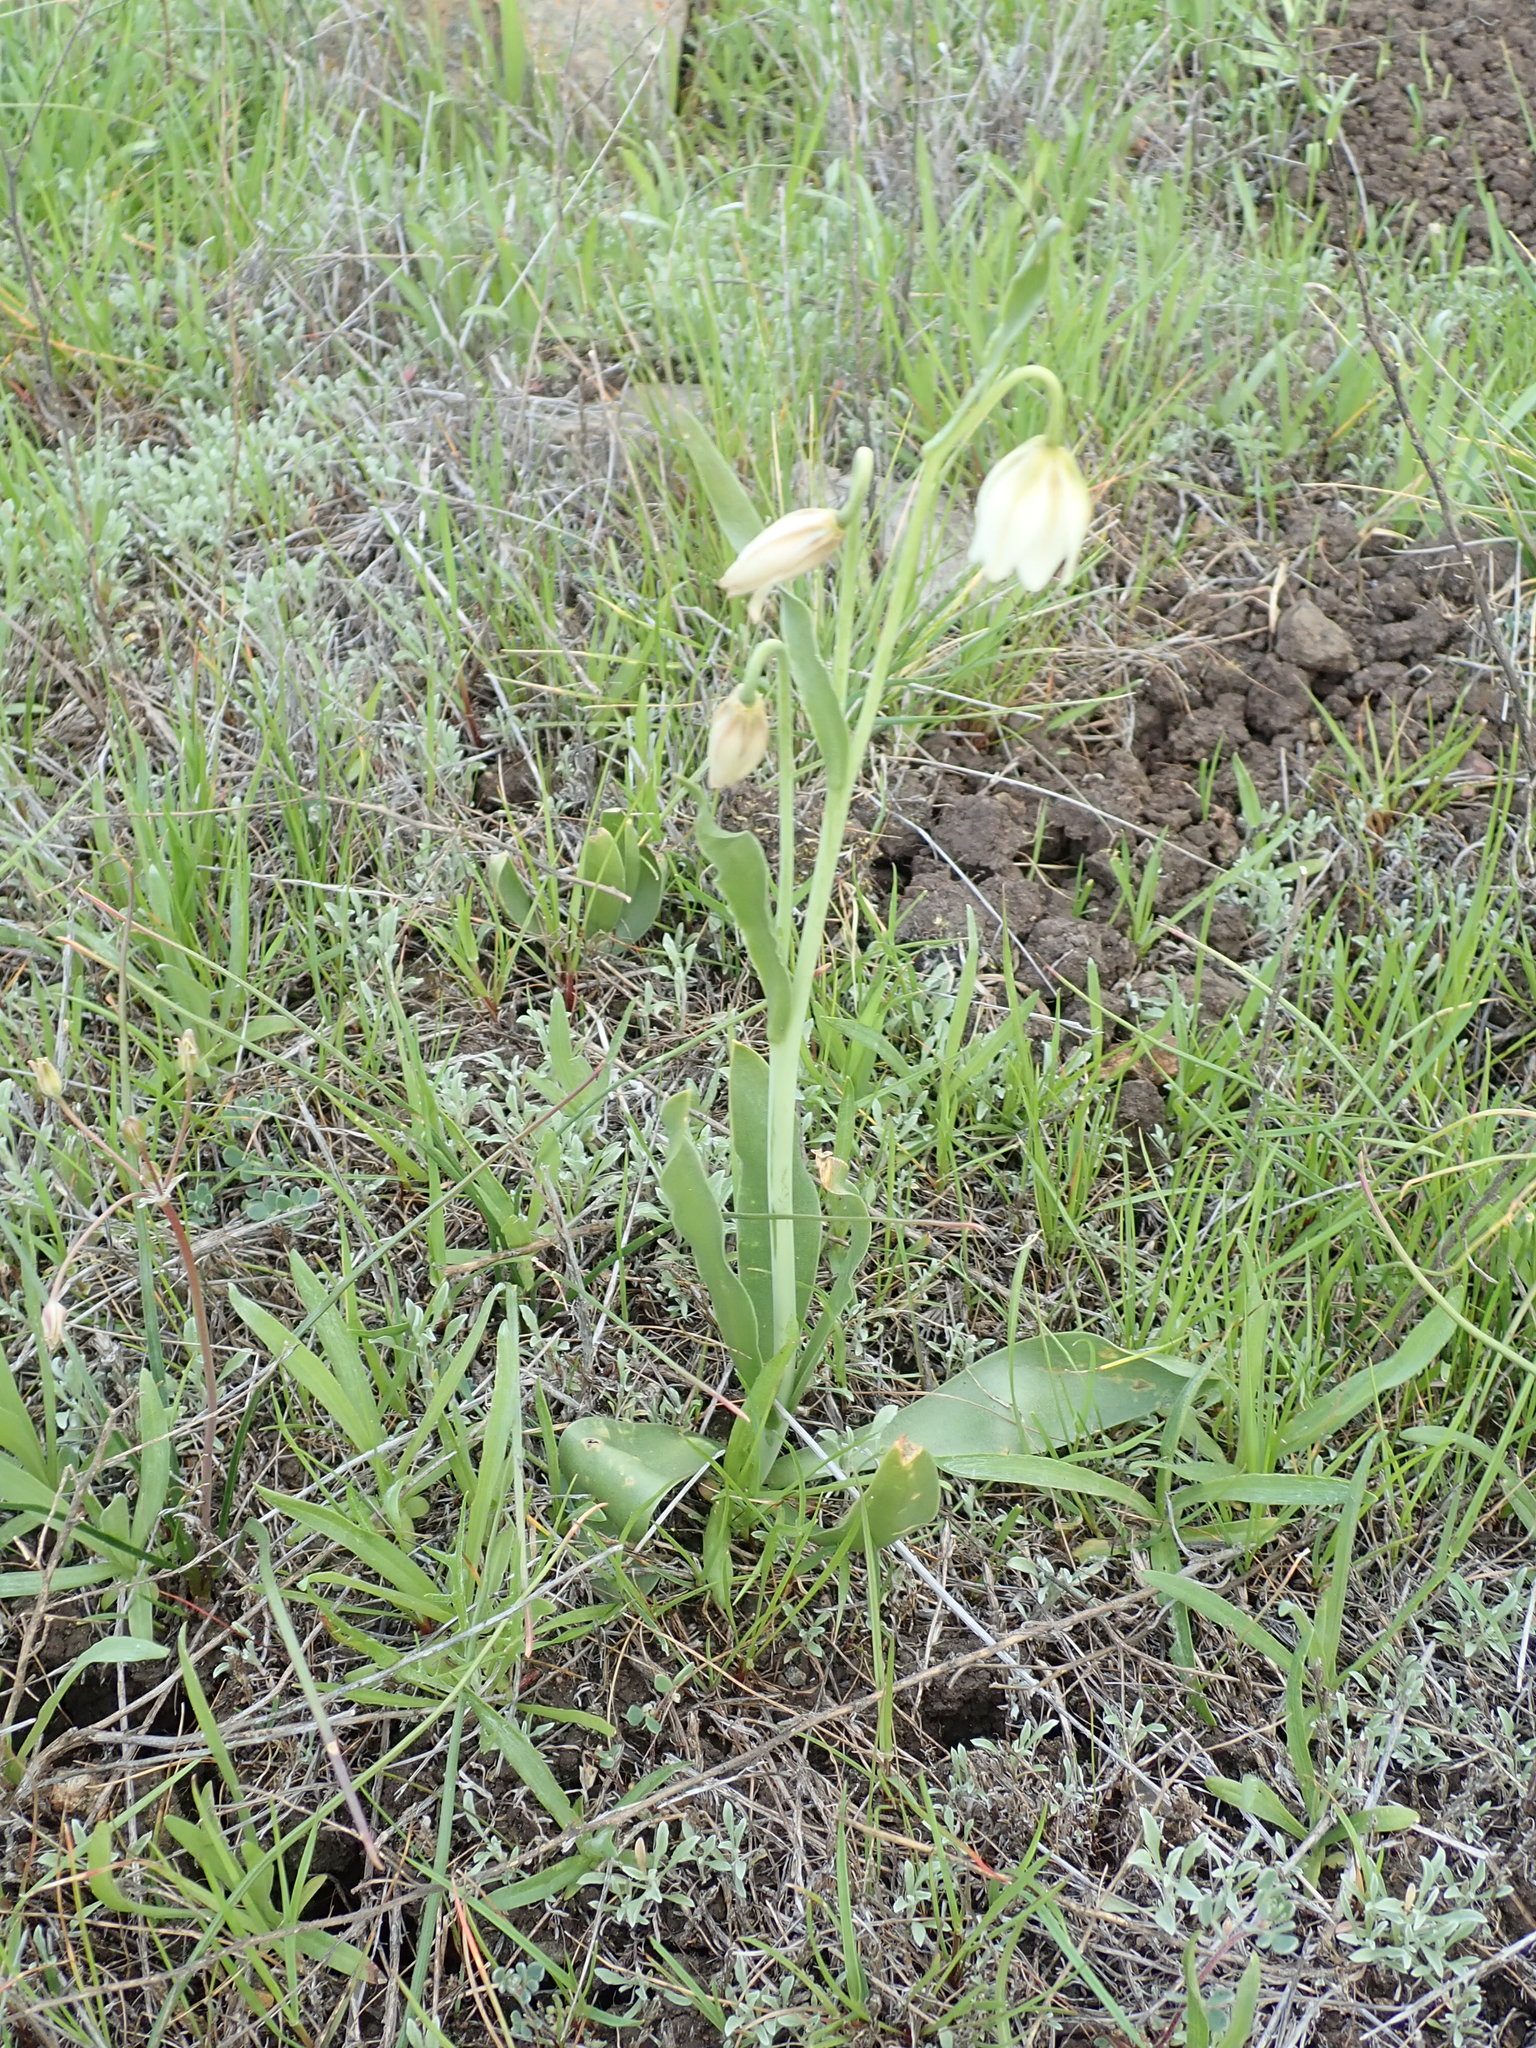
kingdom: Plantae
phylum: Tracheophyta
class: Liliopsida
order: Liliales
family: Liliaceae
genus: Fritillaria
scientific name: Fritillaria liliacea
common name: Fragrant fritillary
